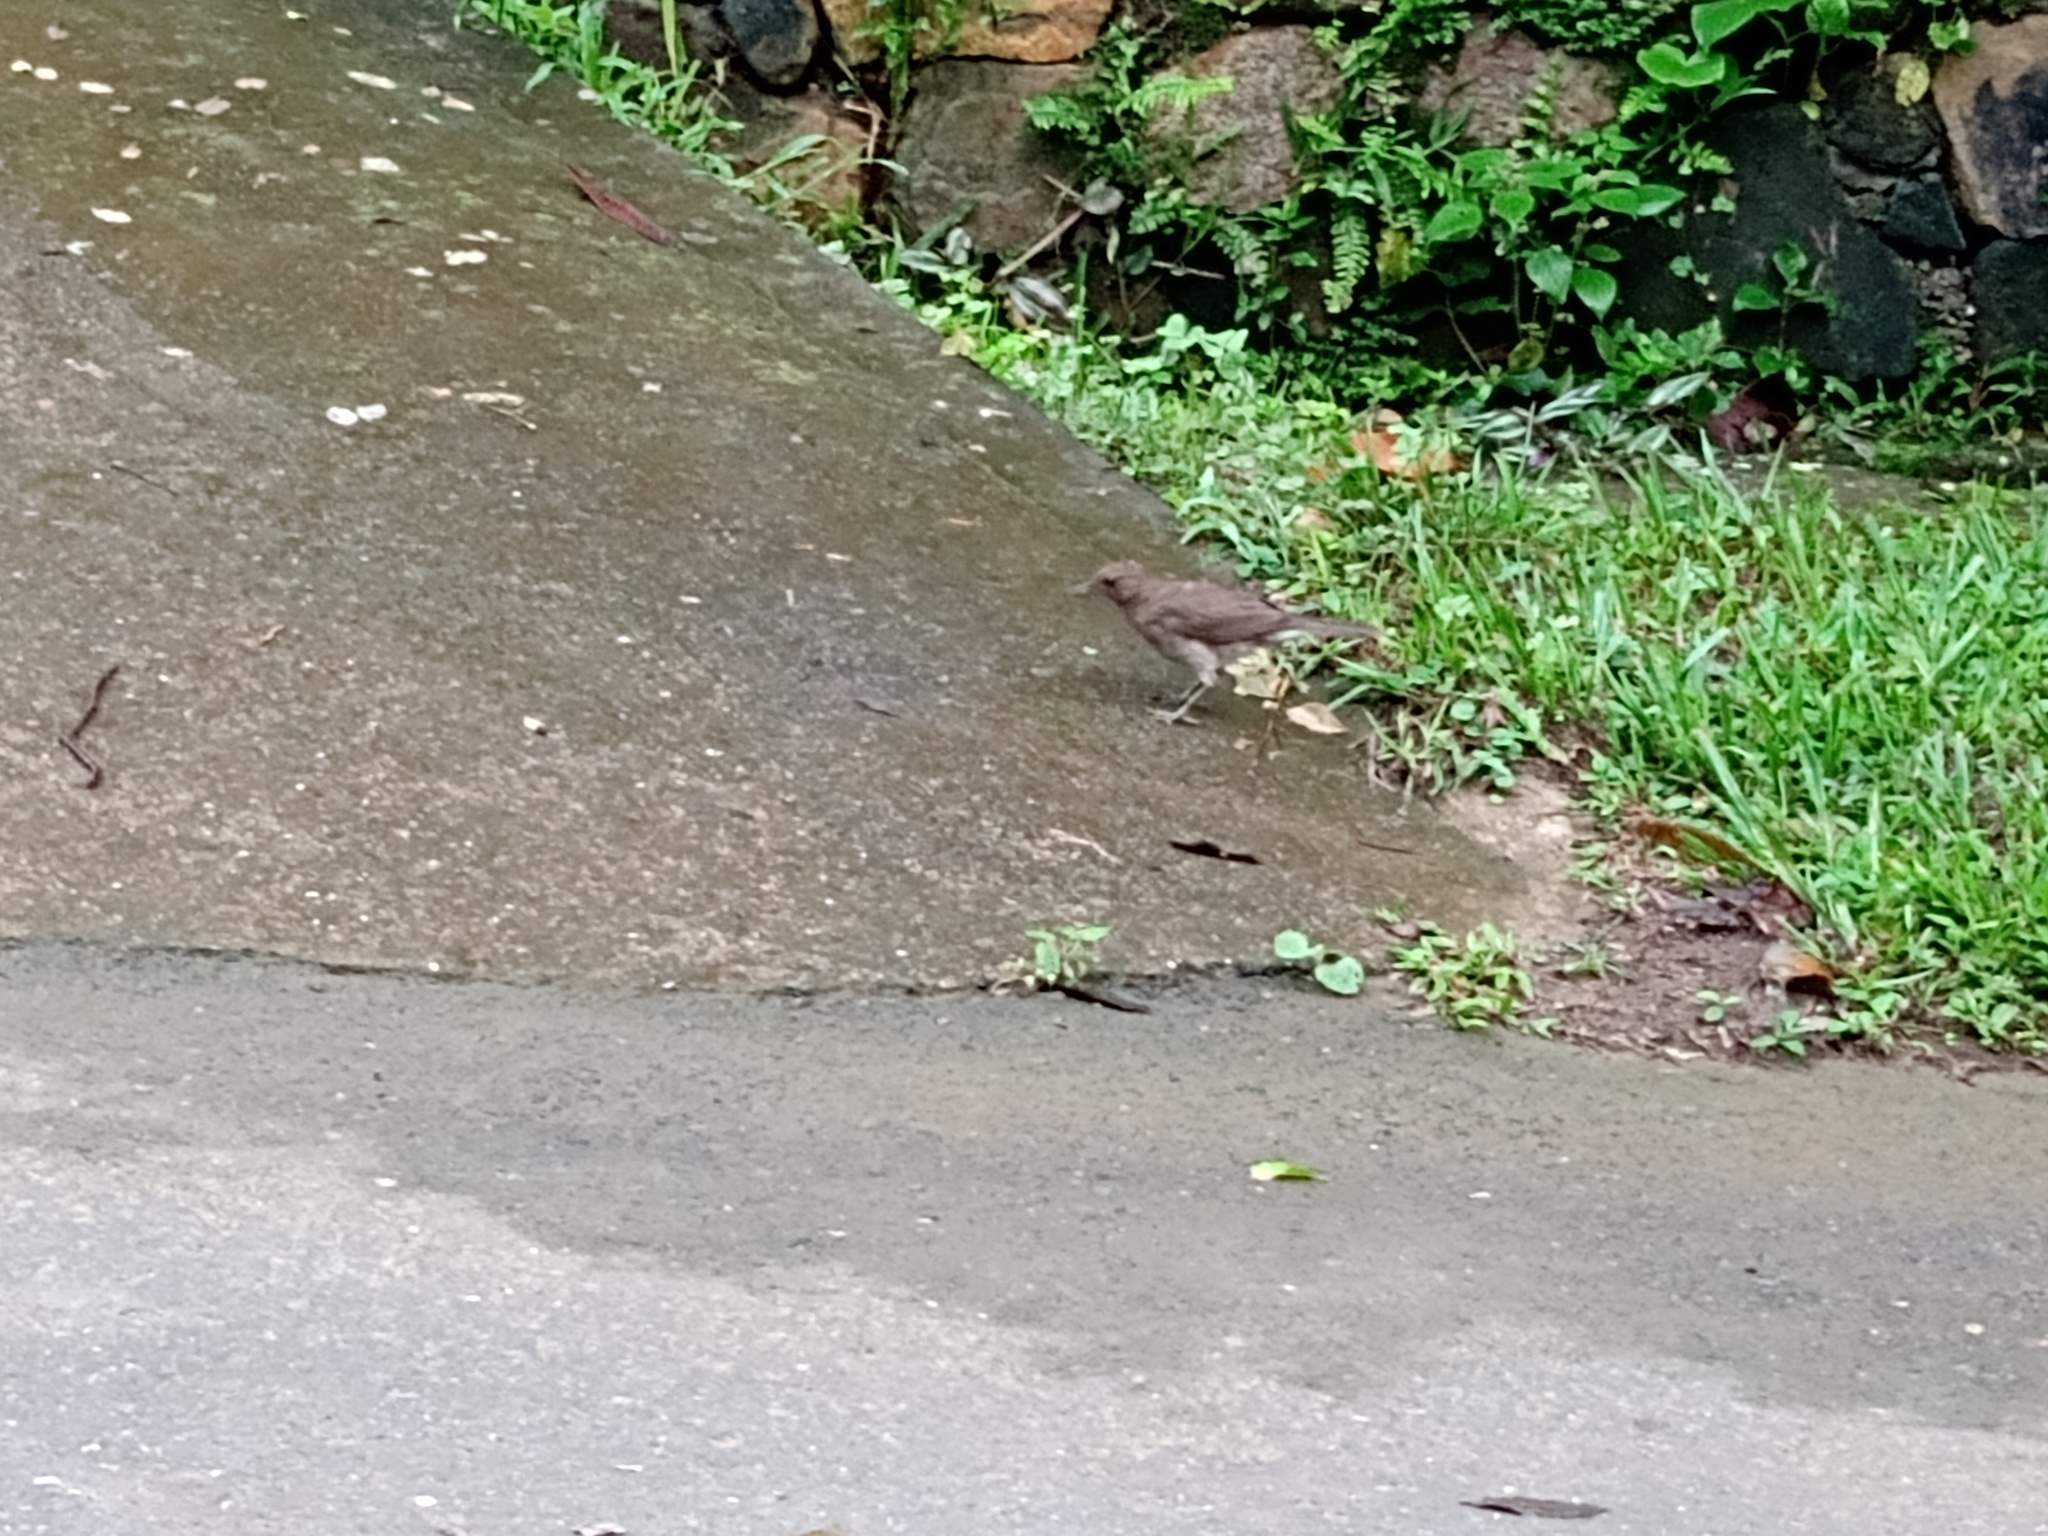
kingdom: Animalia
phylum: Chordata
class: Aves
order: Passeriformes
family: Turdidae
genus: Turdus
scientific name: Turdus ignobilis
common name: Black-billed thrush
